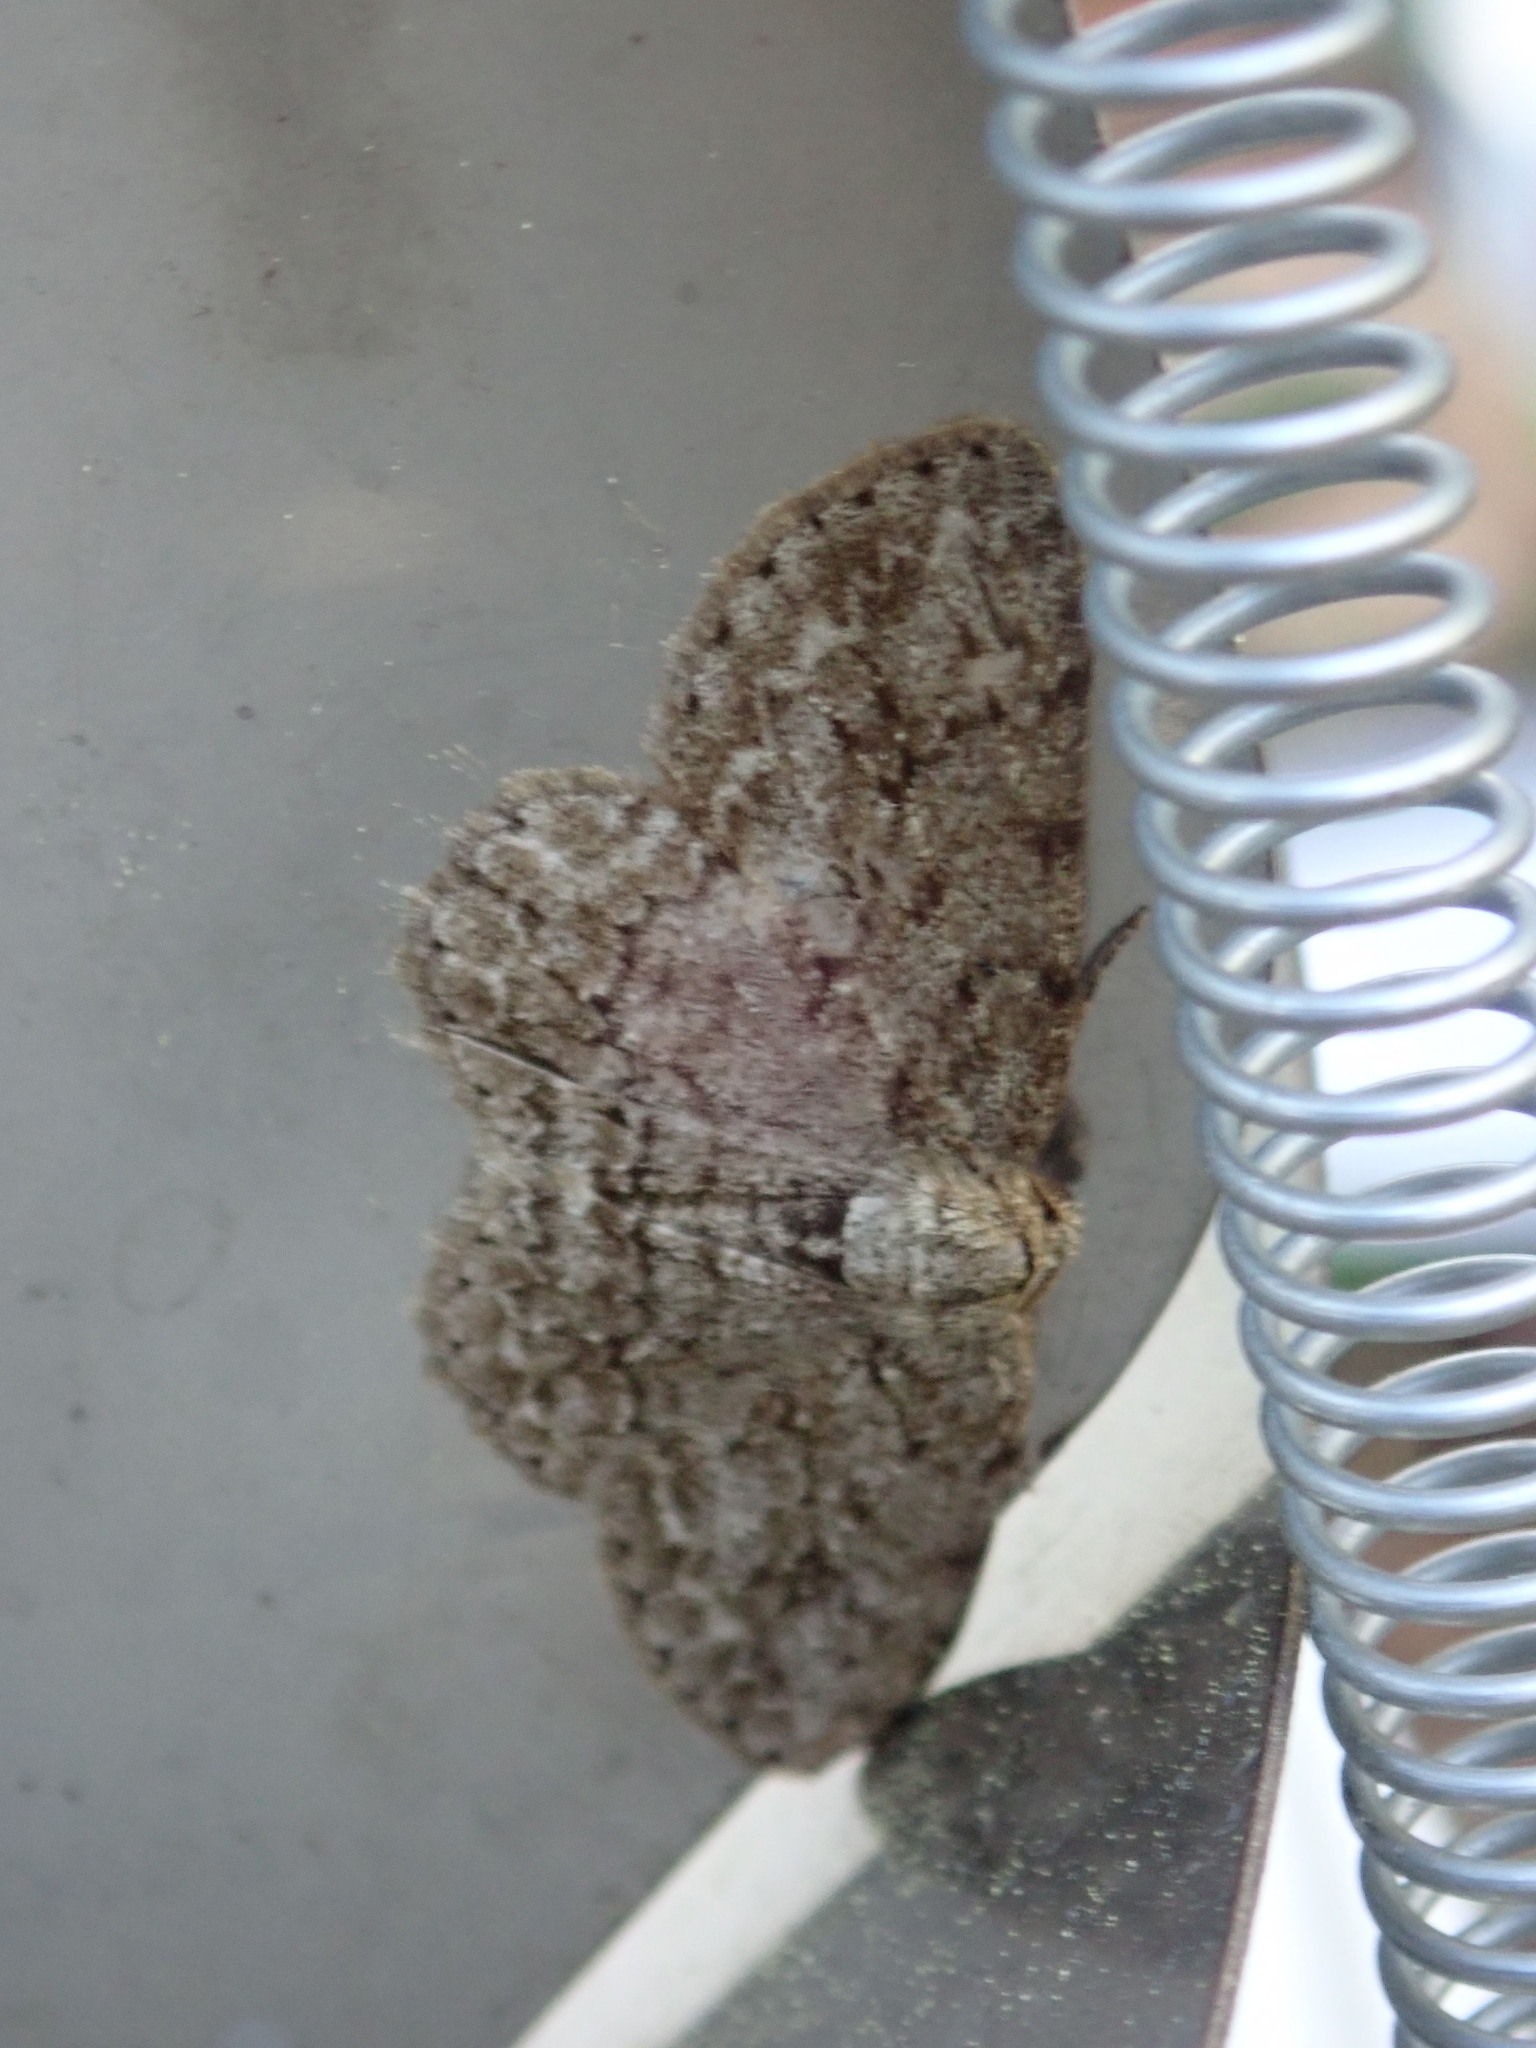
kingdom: Animalia
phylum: Arthropoda
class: Insecta
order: Lepidoptera
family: Geometridae
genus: Ectropis
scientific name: Ectropis crepuscularia
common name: Engrailed
